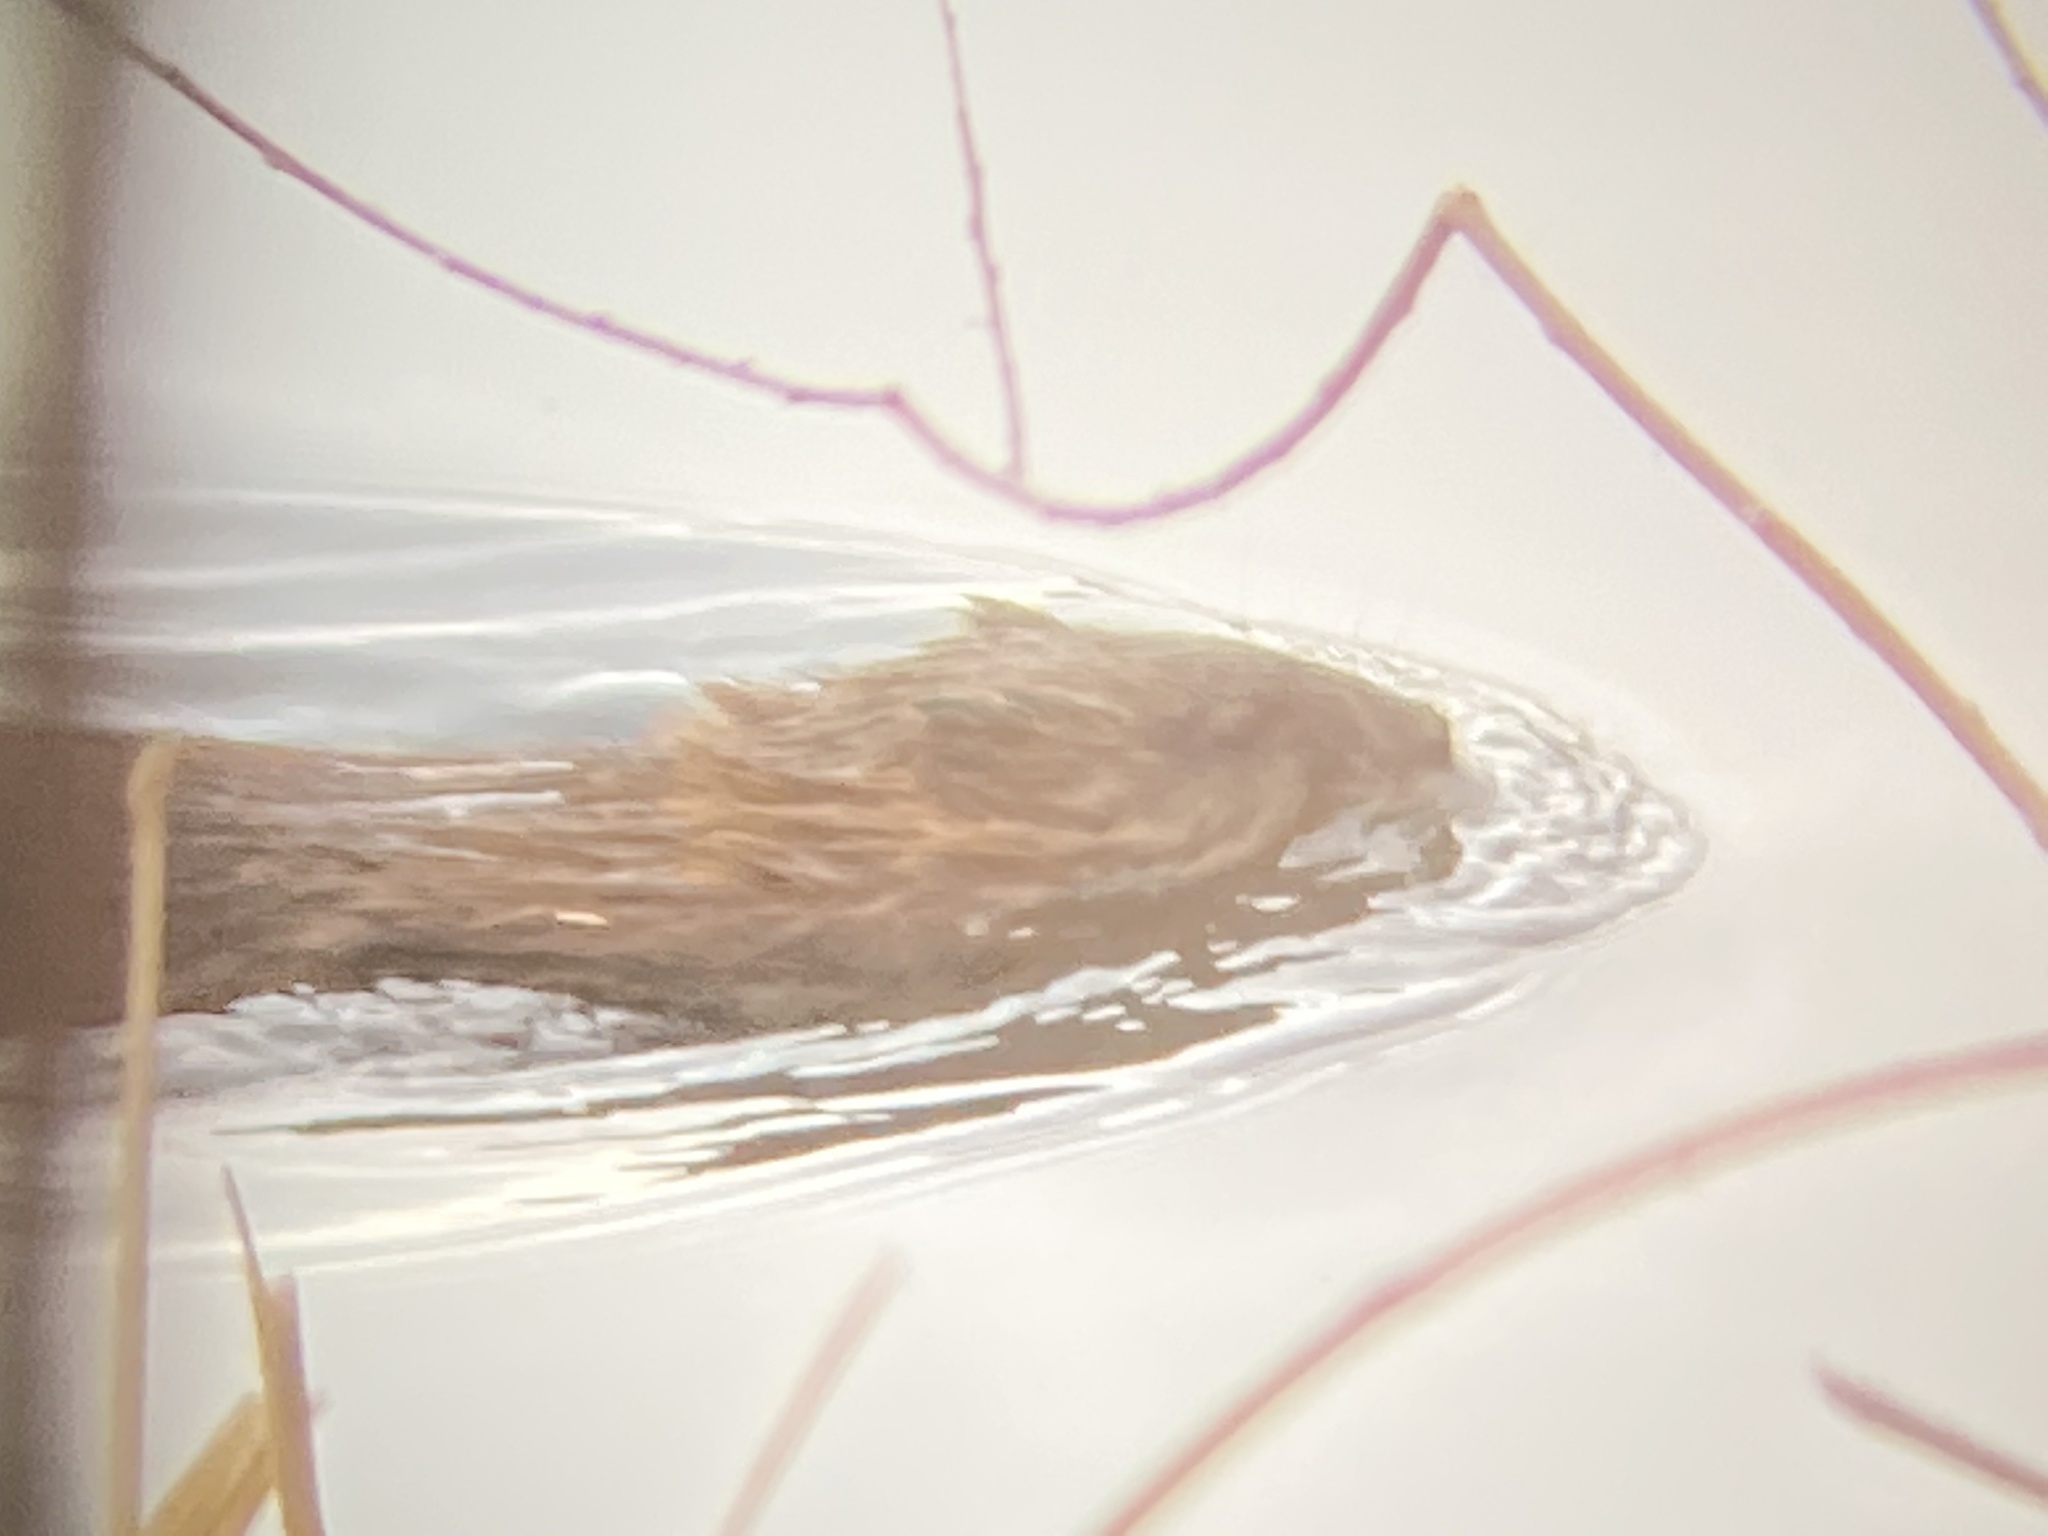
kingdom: Animalia
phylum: Chordata
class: Mammalia
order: Rodentia
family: Cricetidae
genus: Ondatra
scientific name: Ondatra zibethicus
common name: Muskrat
